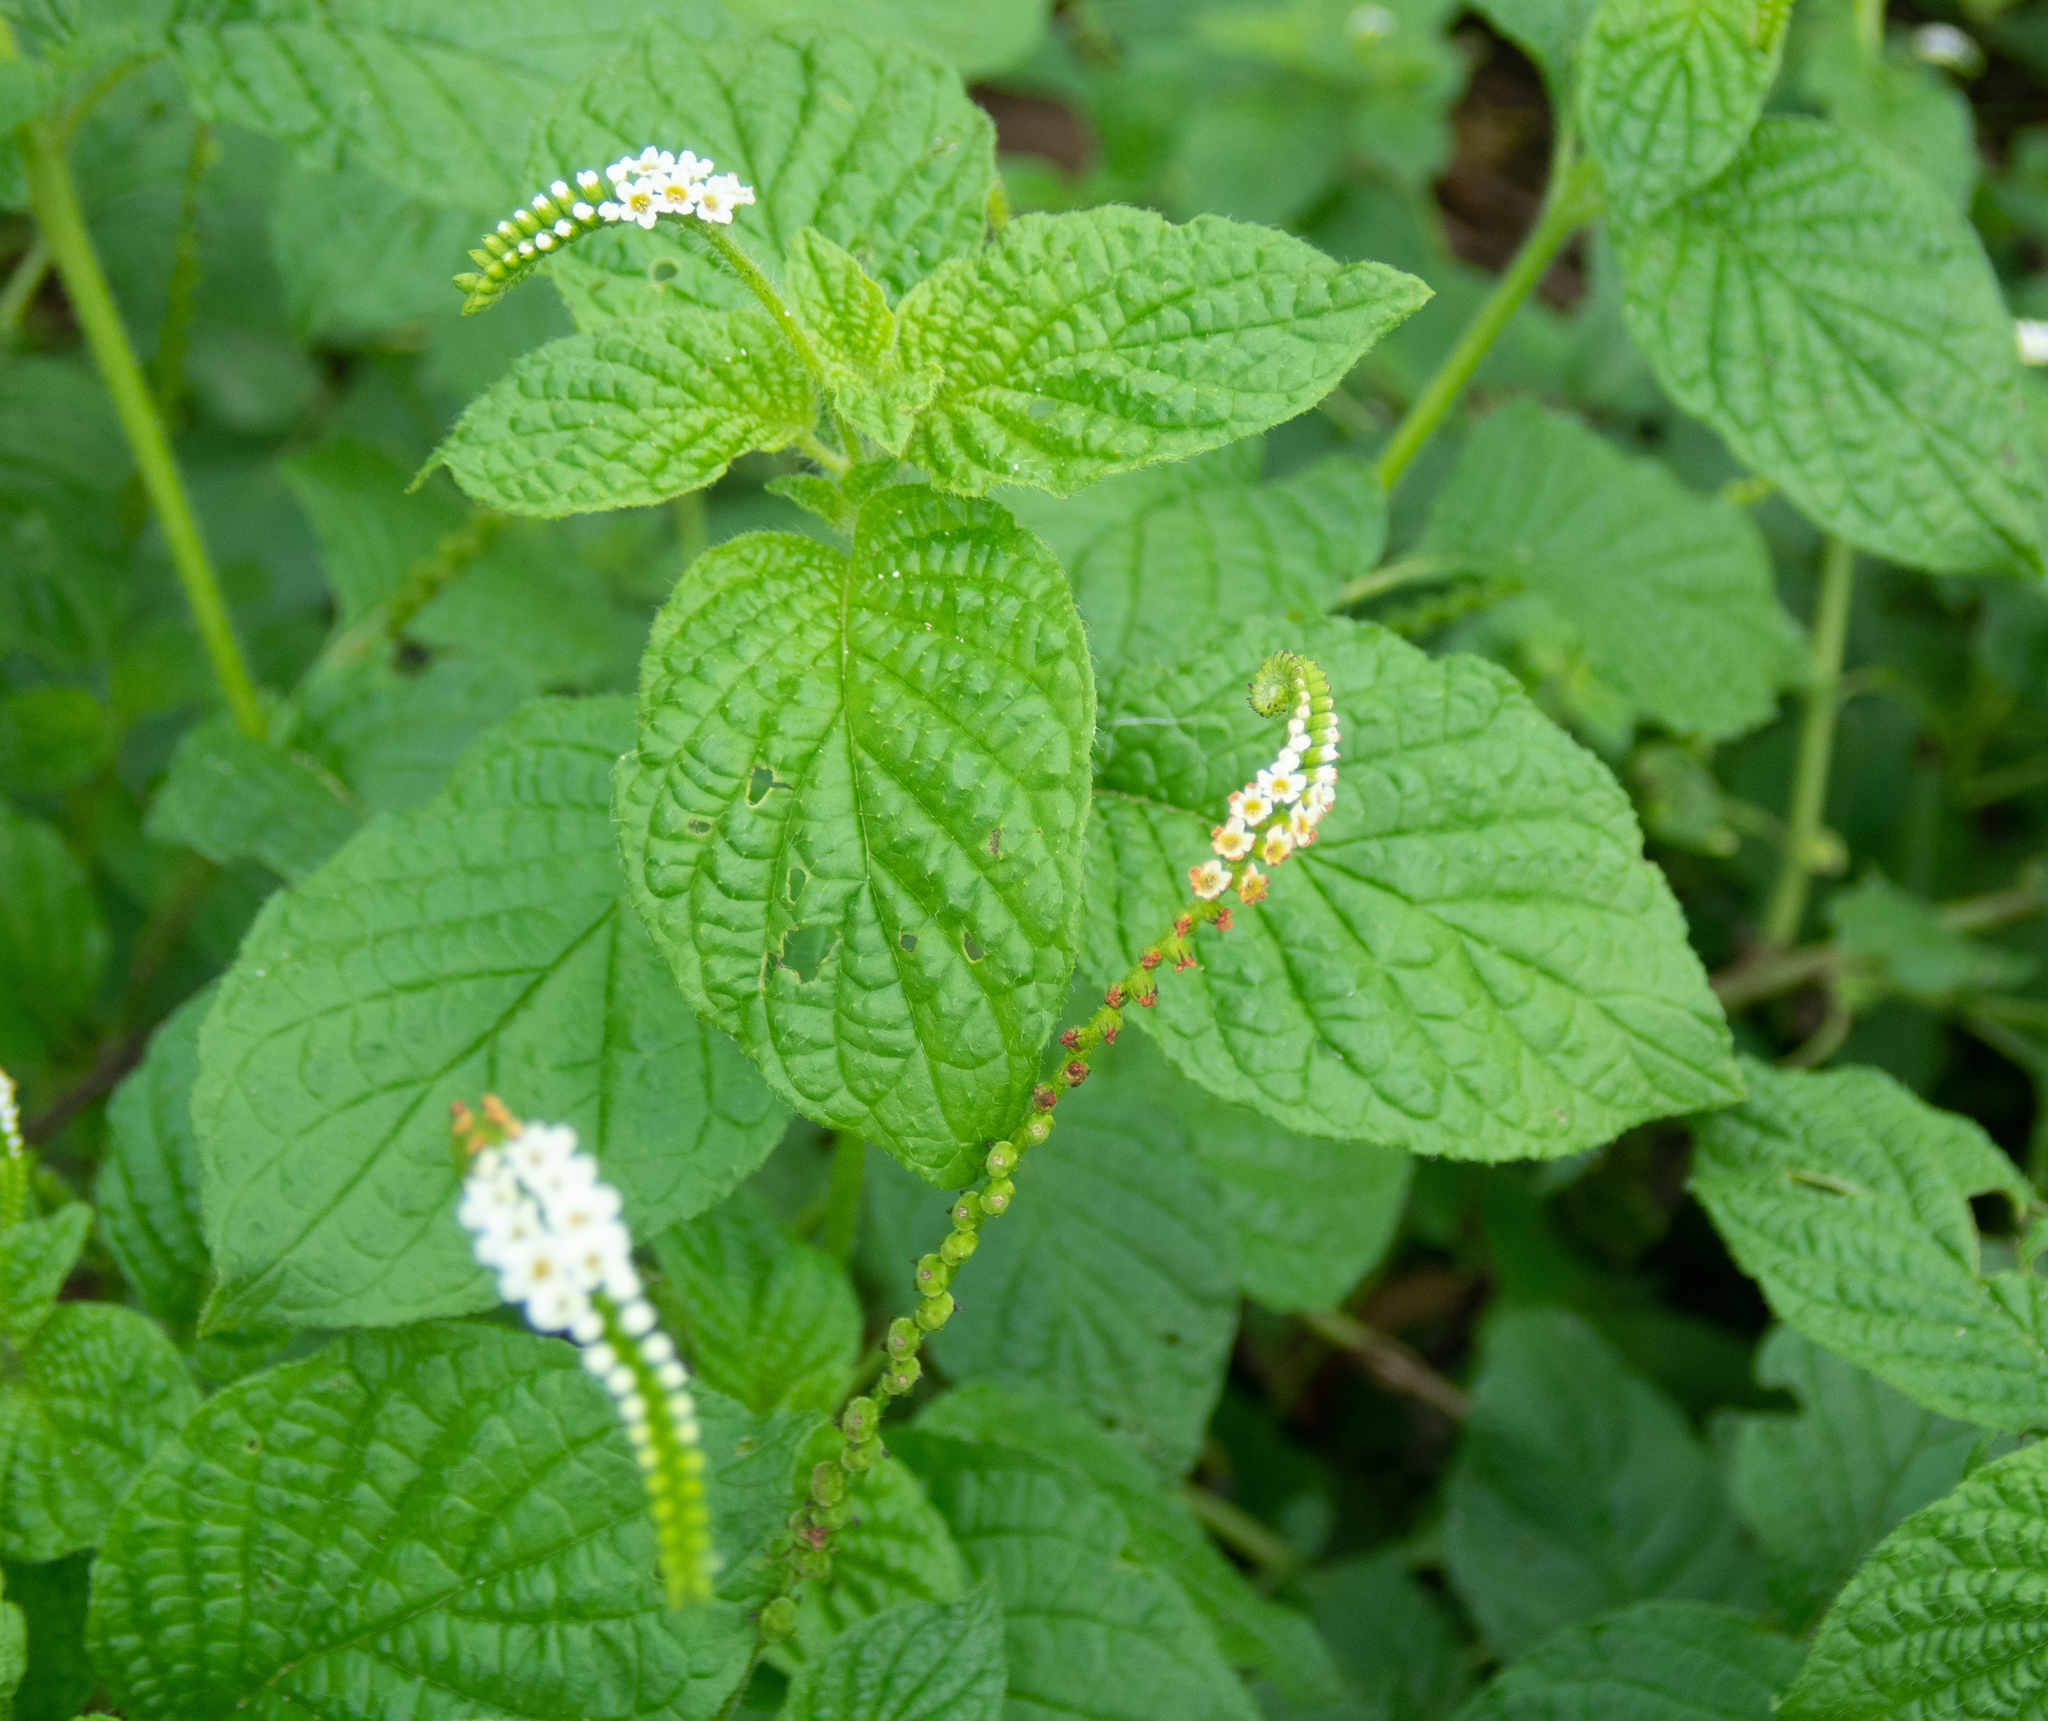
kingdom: Plantae
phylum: Tracheophyta
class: Magnoliopsida
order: Boraginales
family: Heliotropiaceae
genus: Heliotropium
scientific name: Heliotropium angiospermum
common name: Eye bright
